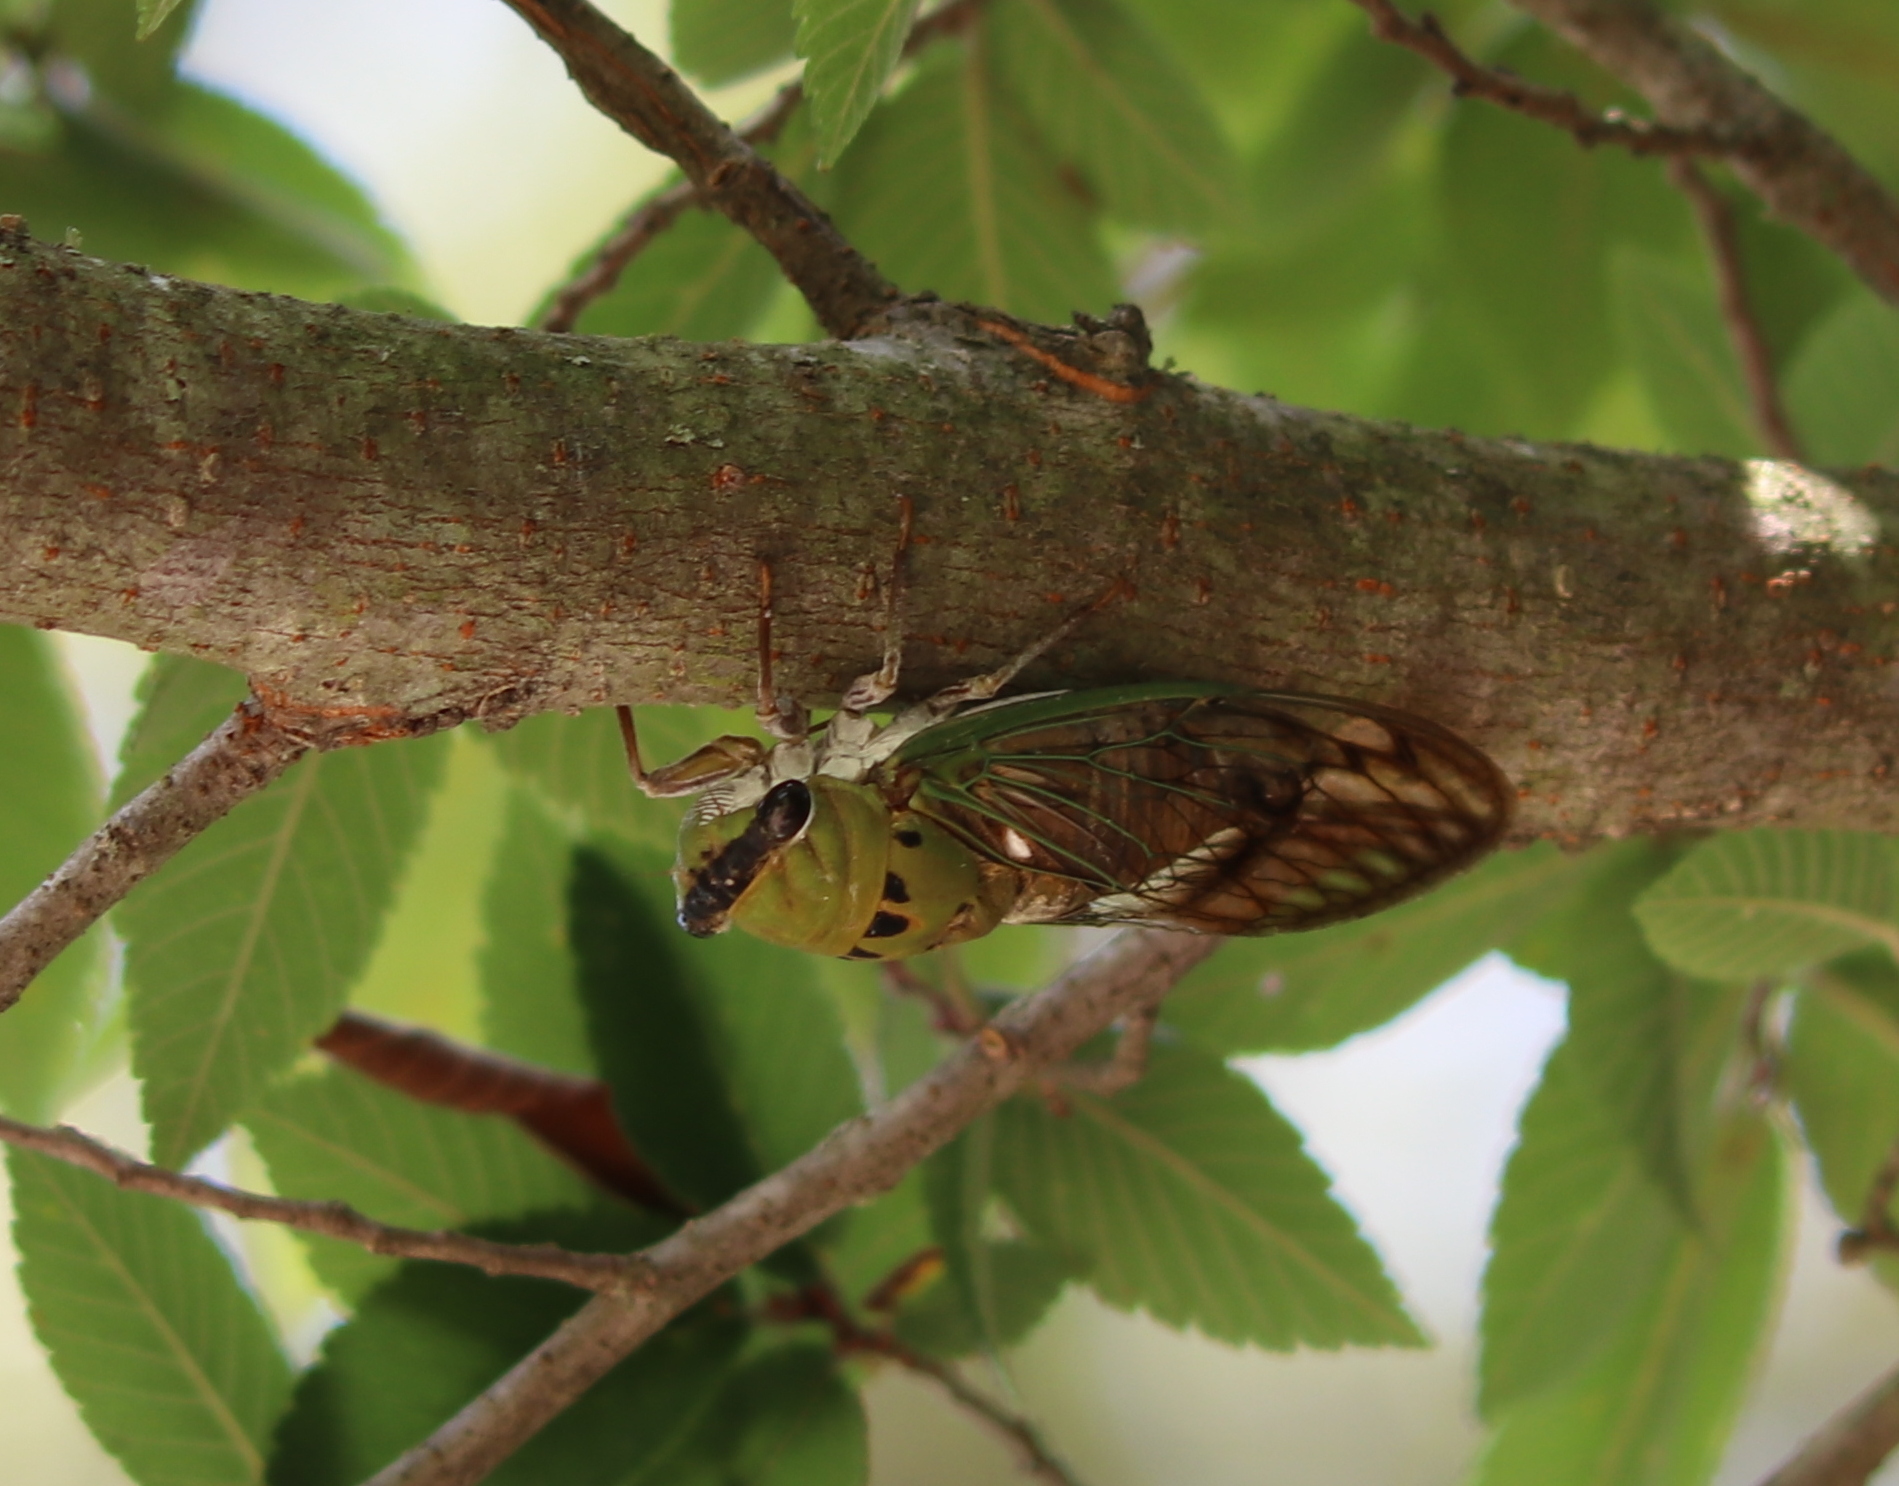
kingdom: Animalia
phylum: Arthropoda
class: Insecta
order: Hemiptera
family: Cicadidae
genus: Neotibicen
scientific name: Neotibicen superbus
